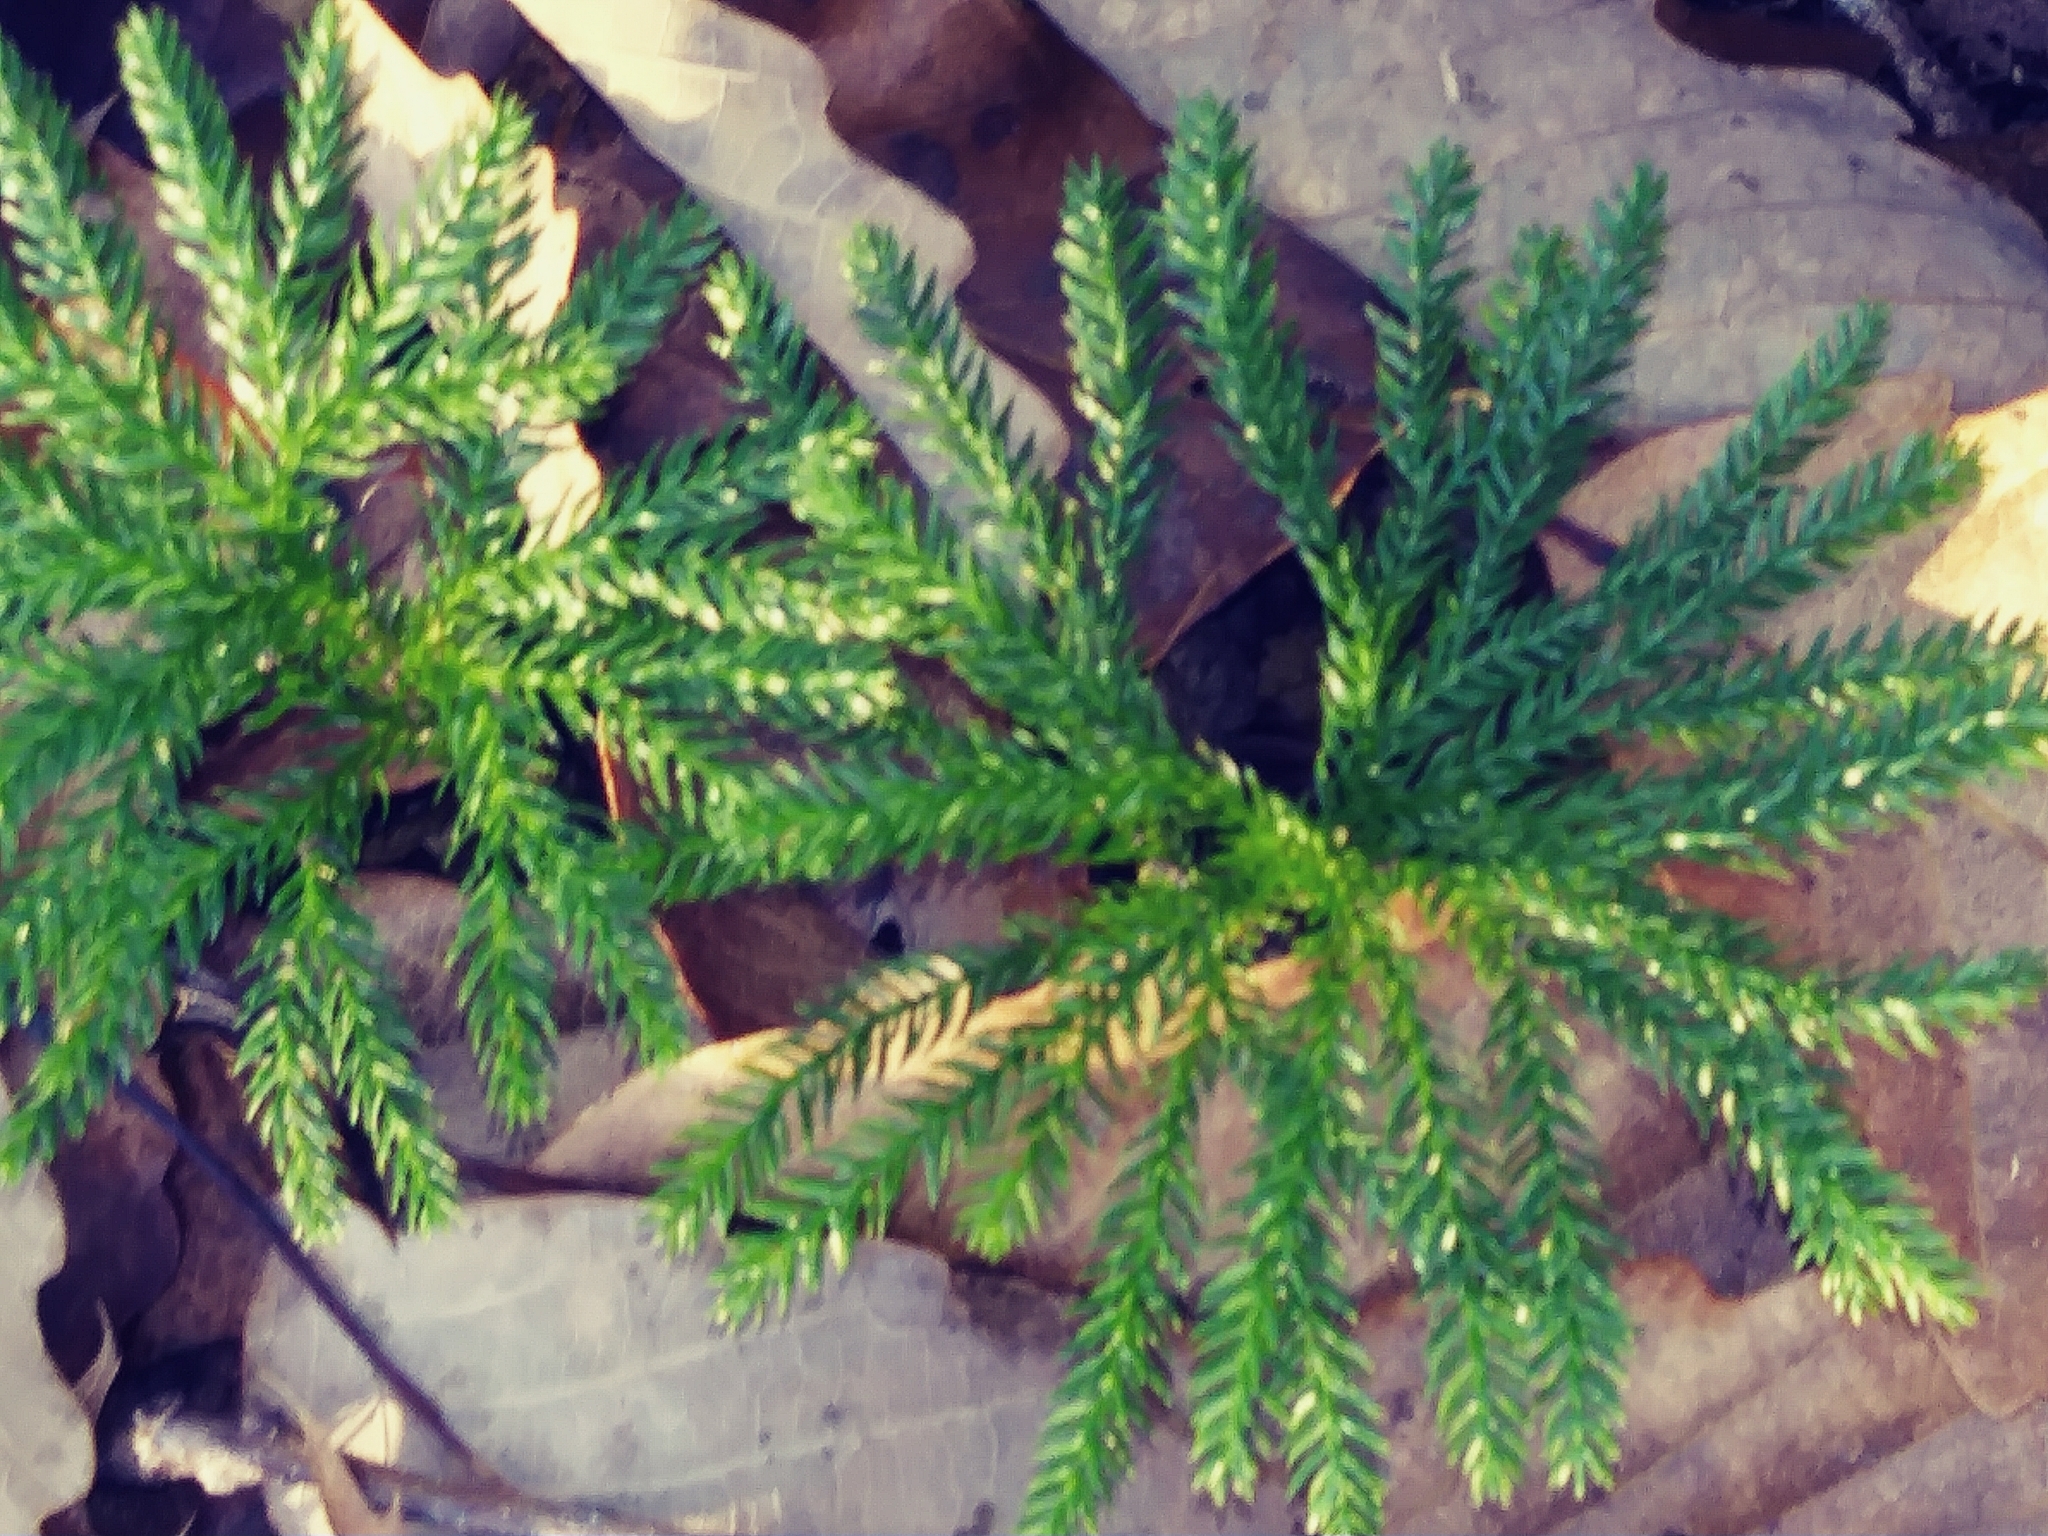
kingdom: Plantae
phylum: Tracheophyta
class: Lycopodiopsida
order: Lycopodiales
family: Lycopodiaceae
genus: Dendrolycopodium
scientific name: Dendrolycopodium obscurum
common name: Common ground-pine
